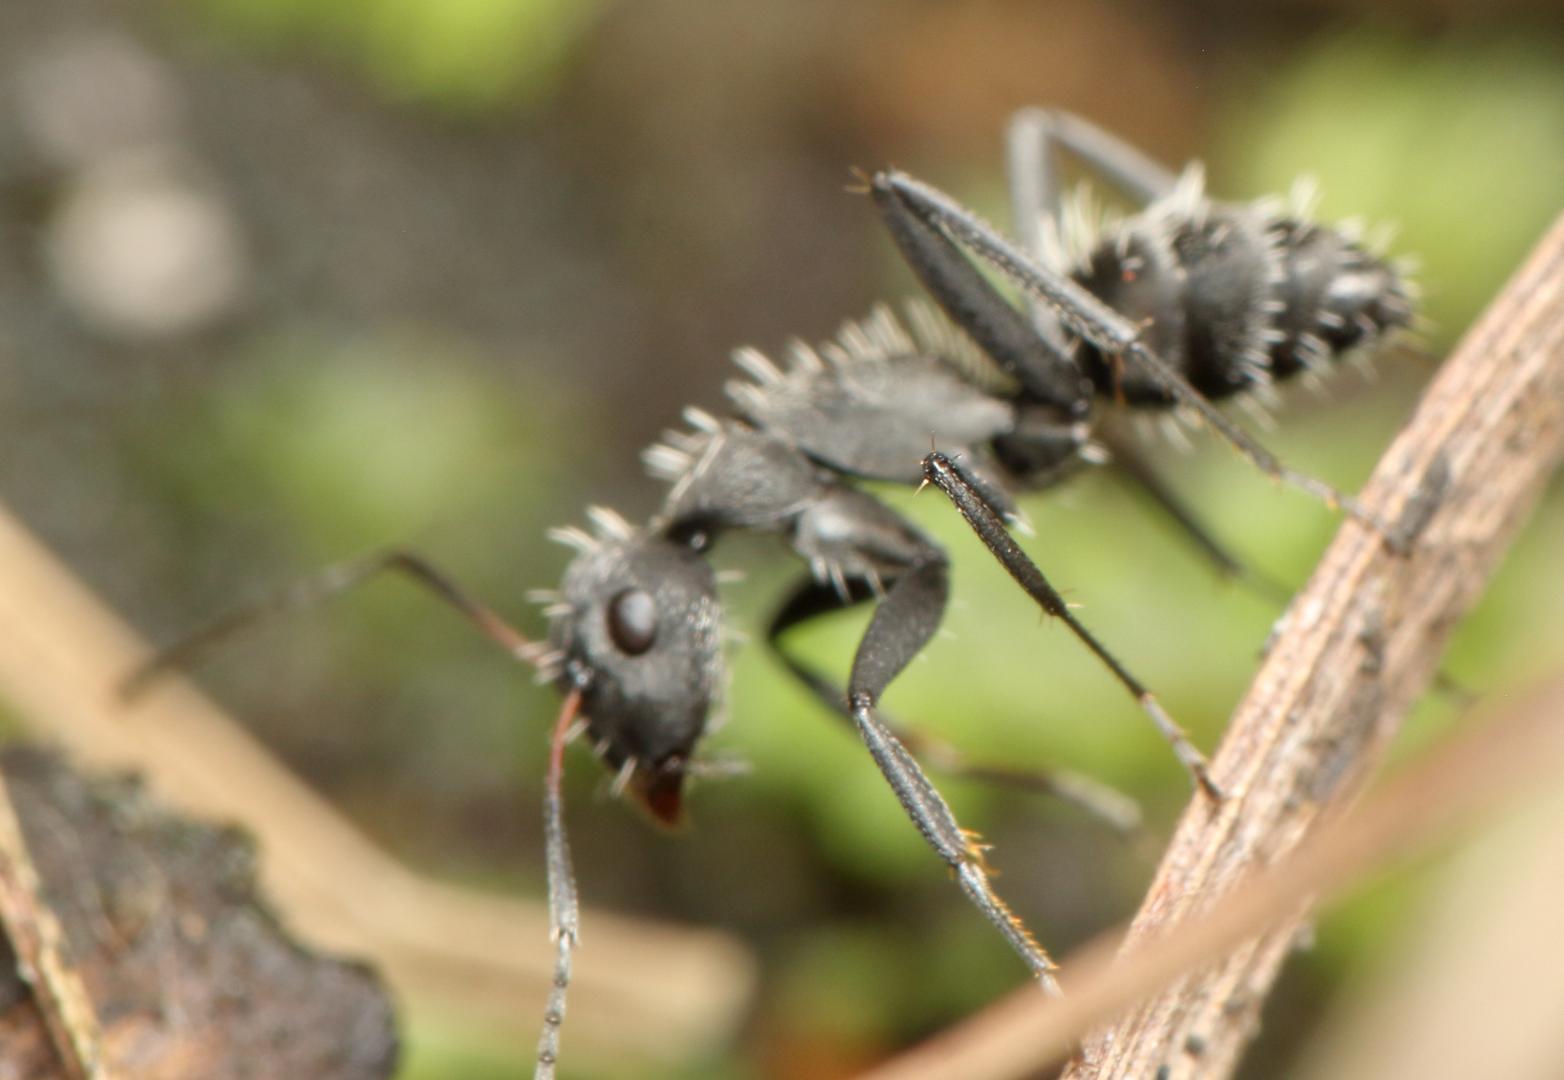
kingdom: Animalia
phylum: Arthropoda
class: Insecta
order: Hymenoptera
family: Formicidae
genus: Camponotus
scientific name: Camponotus postoculatus
